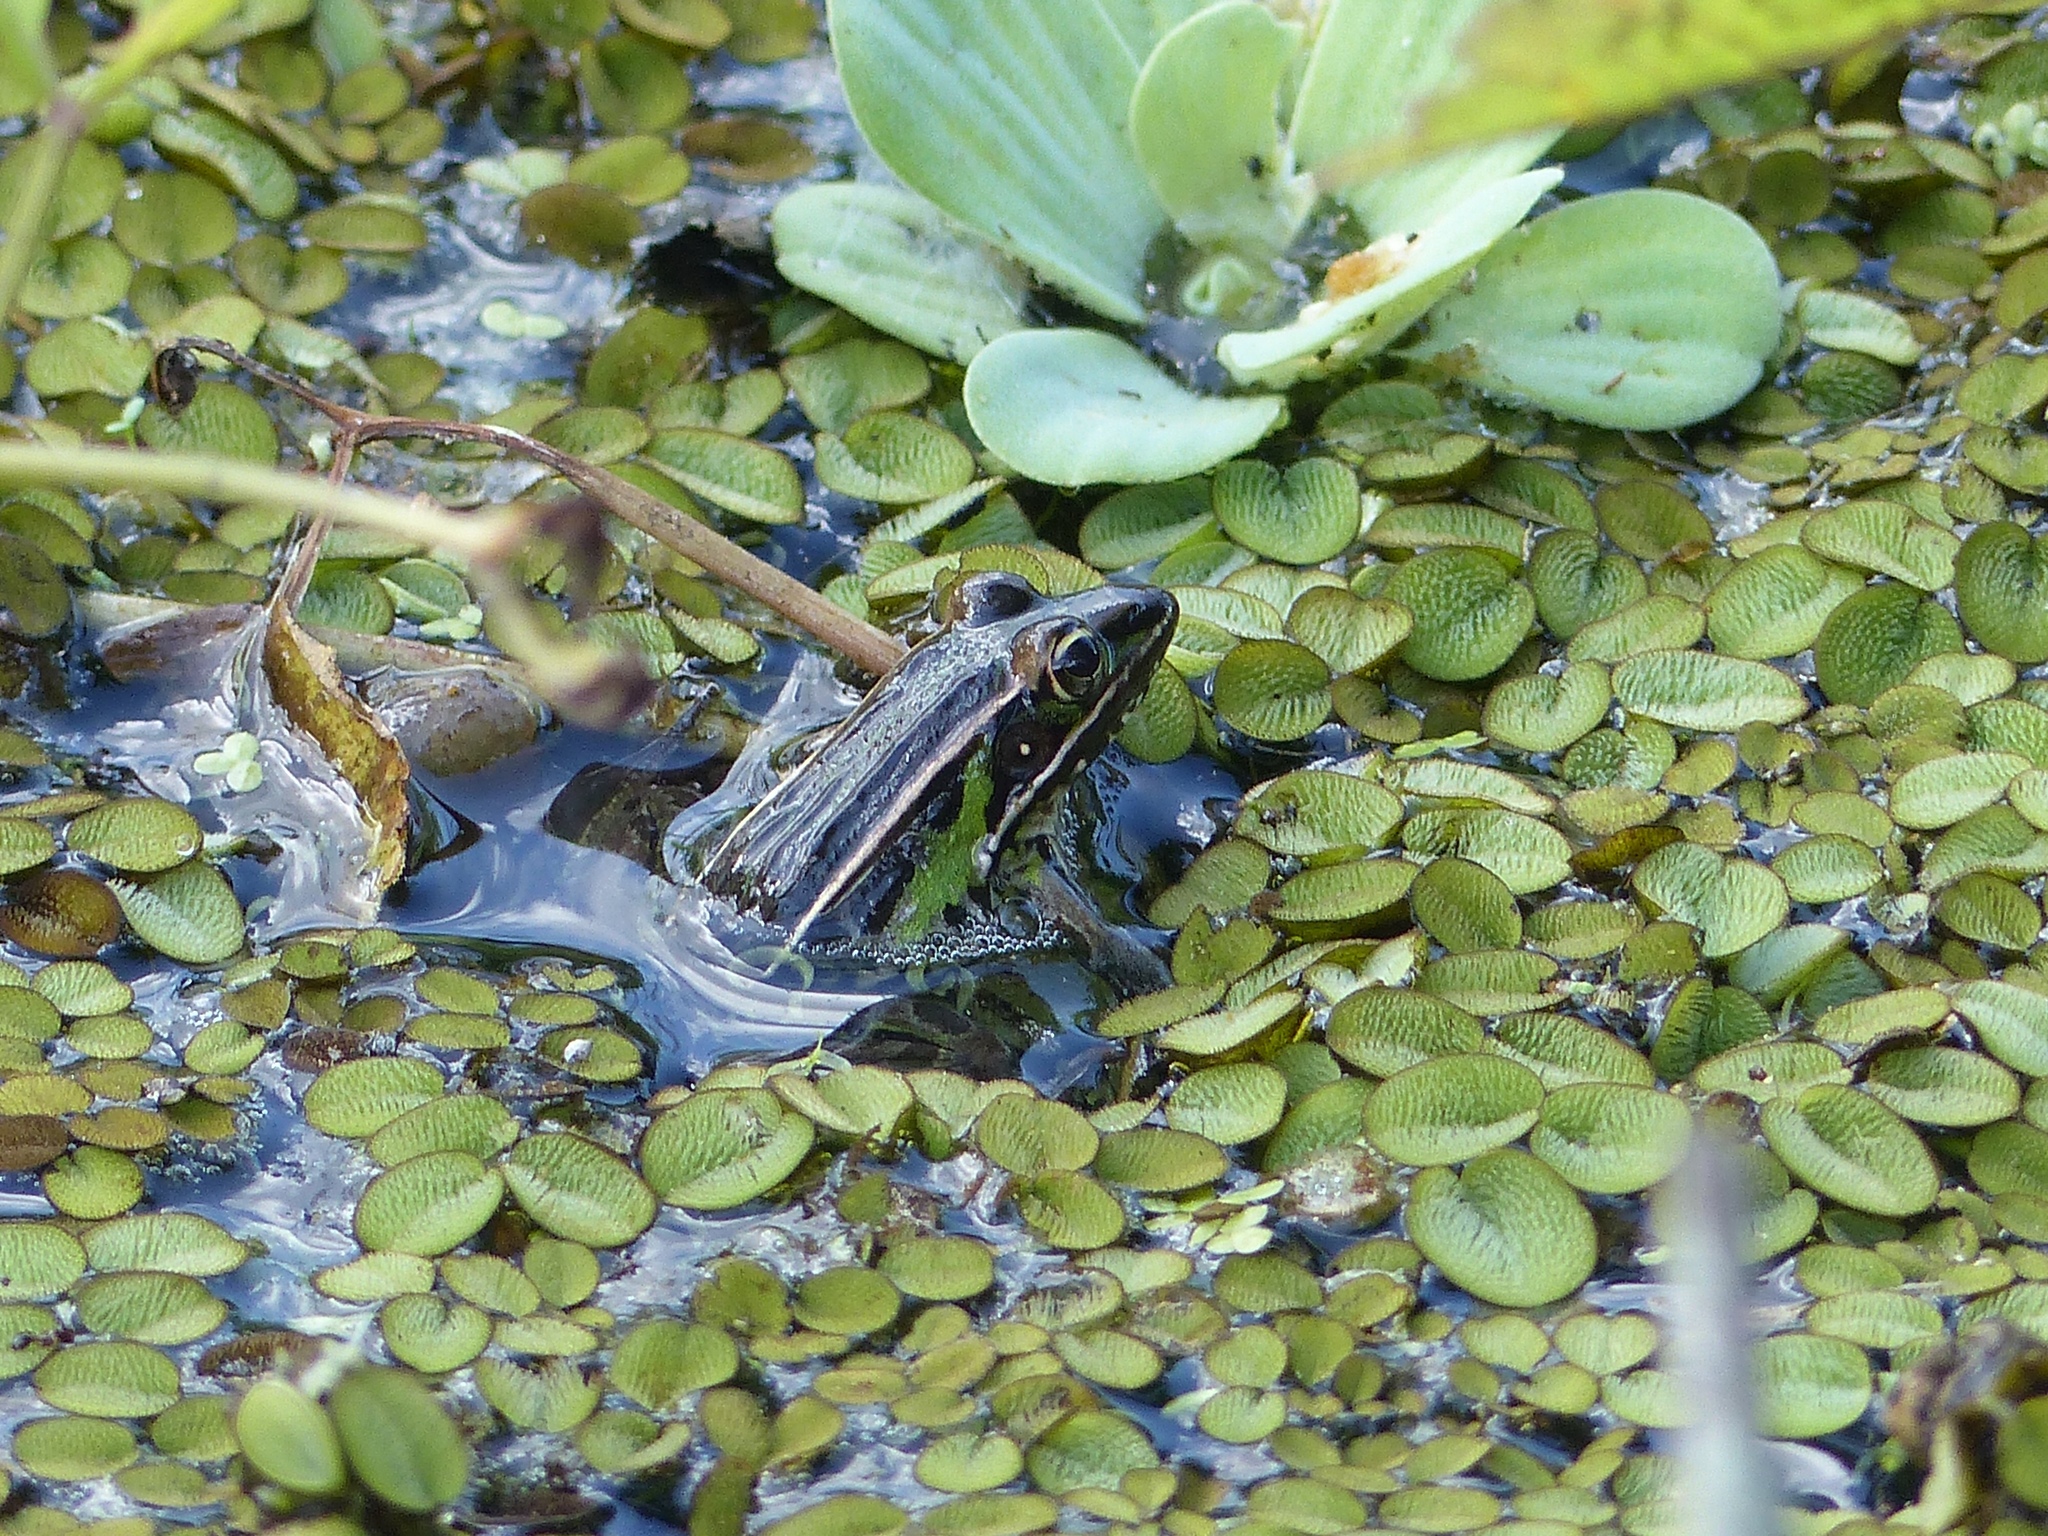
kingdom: Animalia
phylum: Chordata
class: Amphibia
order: Anura
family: Ranidae
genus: Lithobates
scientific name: Lithobates sphenocephalus
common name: Southern leopard frog
